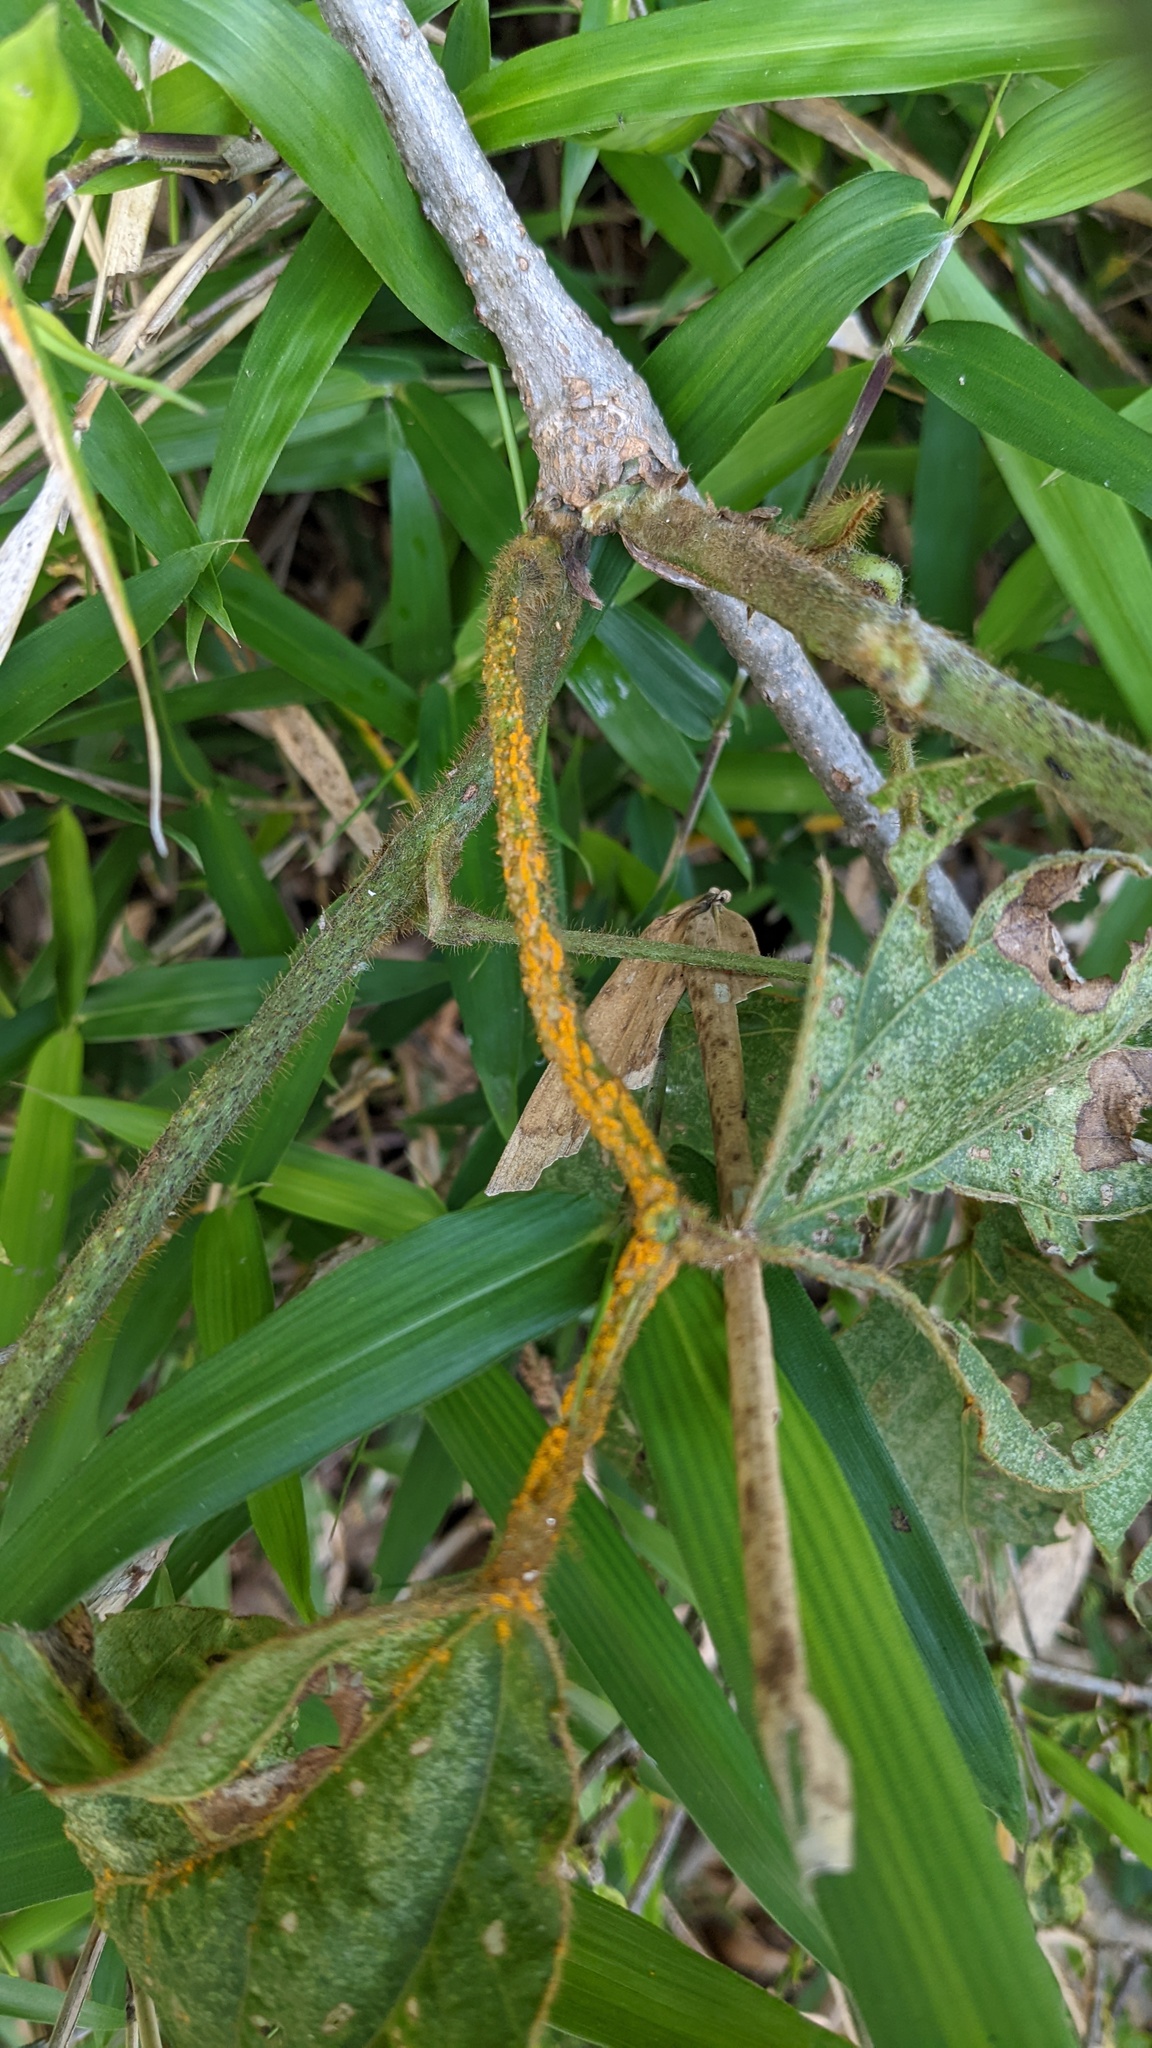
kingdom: Fungi
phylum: Chytridiomycota
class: Chytridiomycetes
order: Chytridiales
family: Synchytriaceae
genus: Synchytrium
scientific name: Synchytrium minutum
